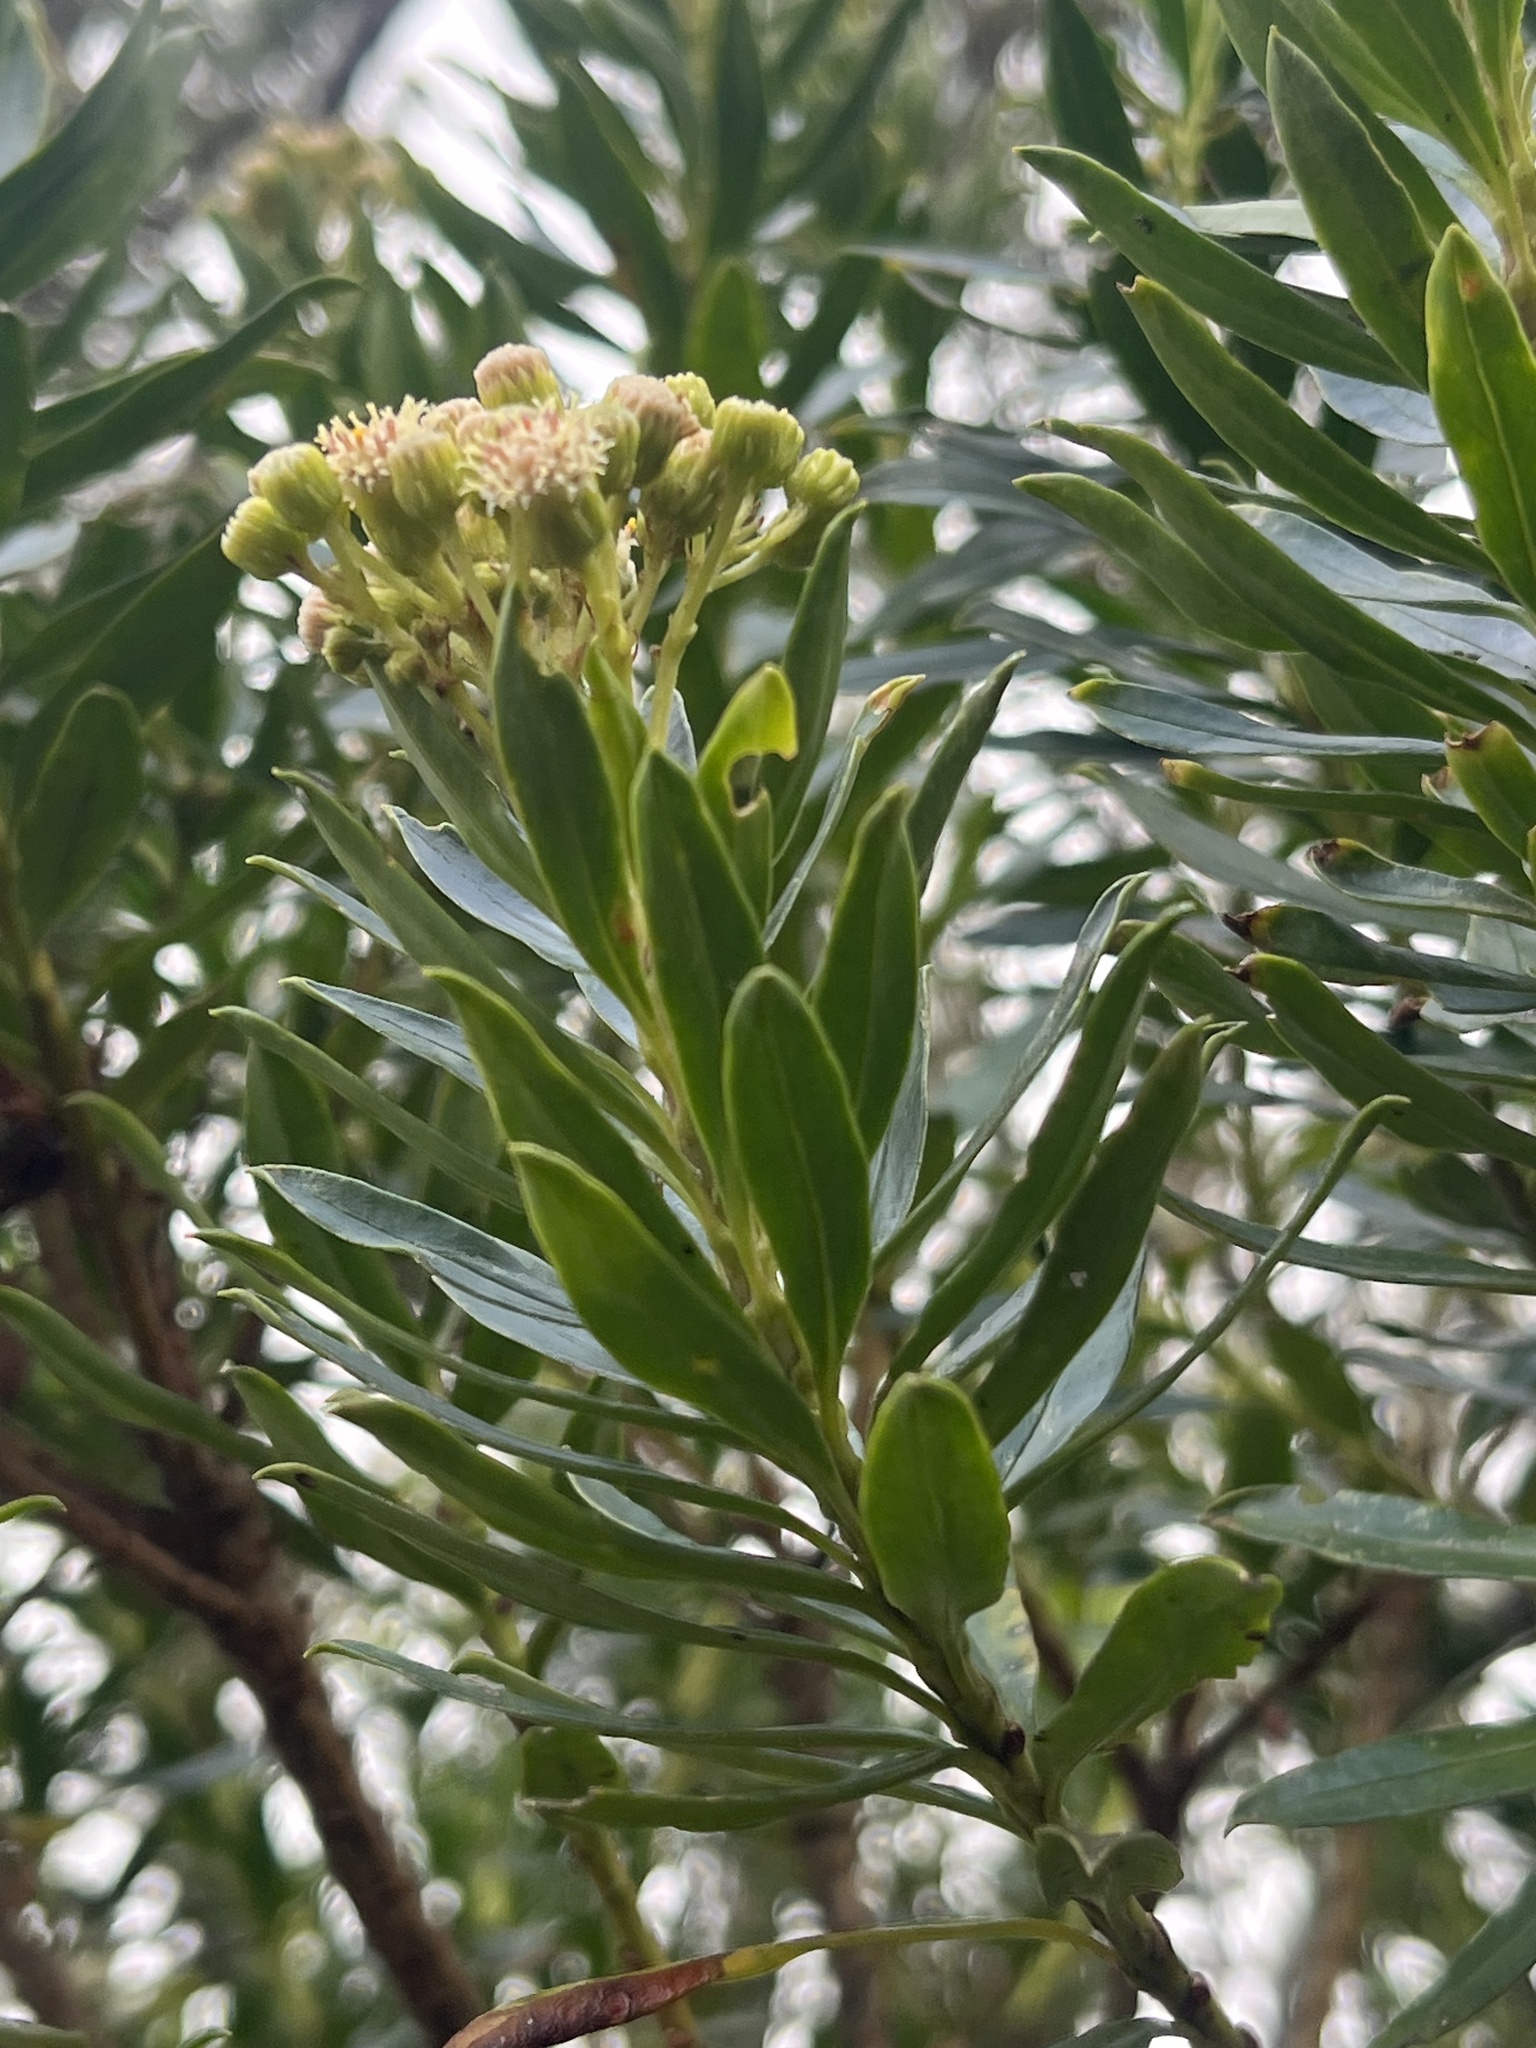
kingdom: Plantae
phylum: Tracheophyta
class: Magnoliopsida
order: Asterales
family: Asteraceae
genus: Monticalia
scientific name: Monticalia pulchella
